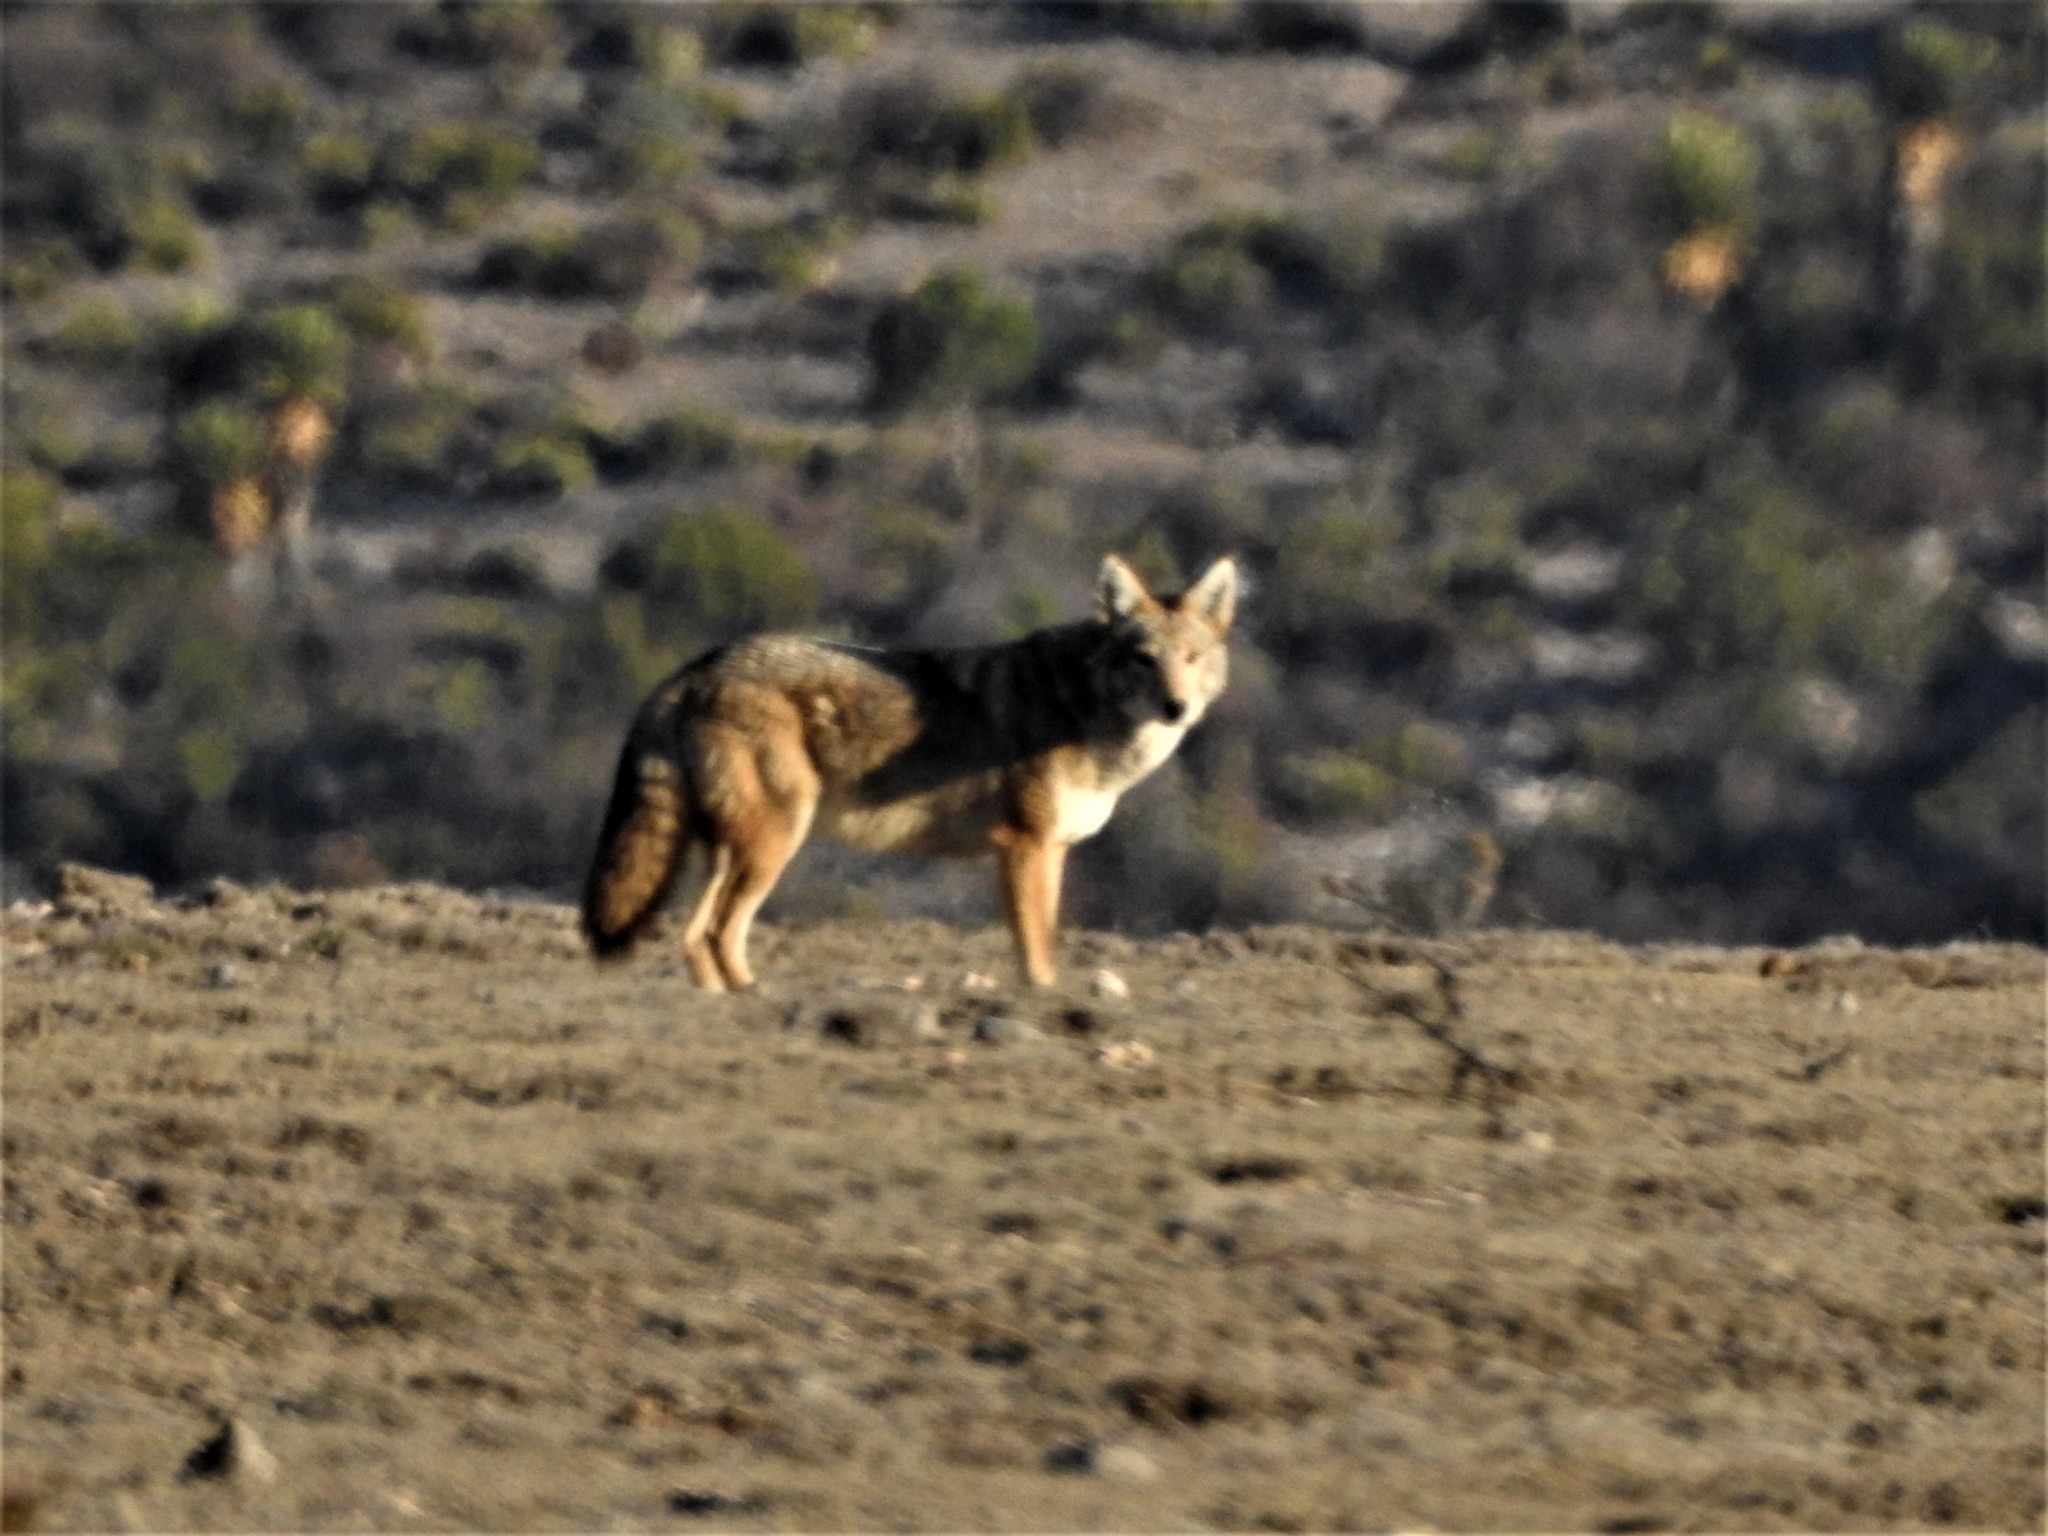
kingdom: Animalia
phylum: Chordata
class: Mammalia
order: Carnivora
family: Canidae
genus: Canis
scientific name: Canis latrans
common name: Coyote
